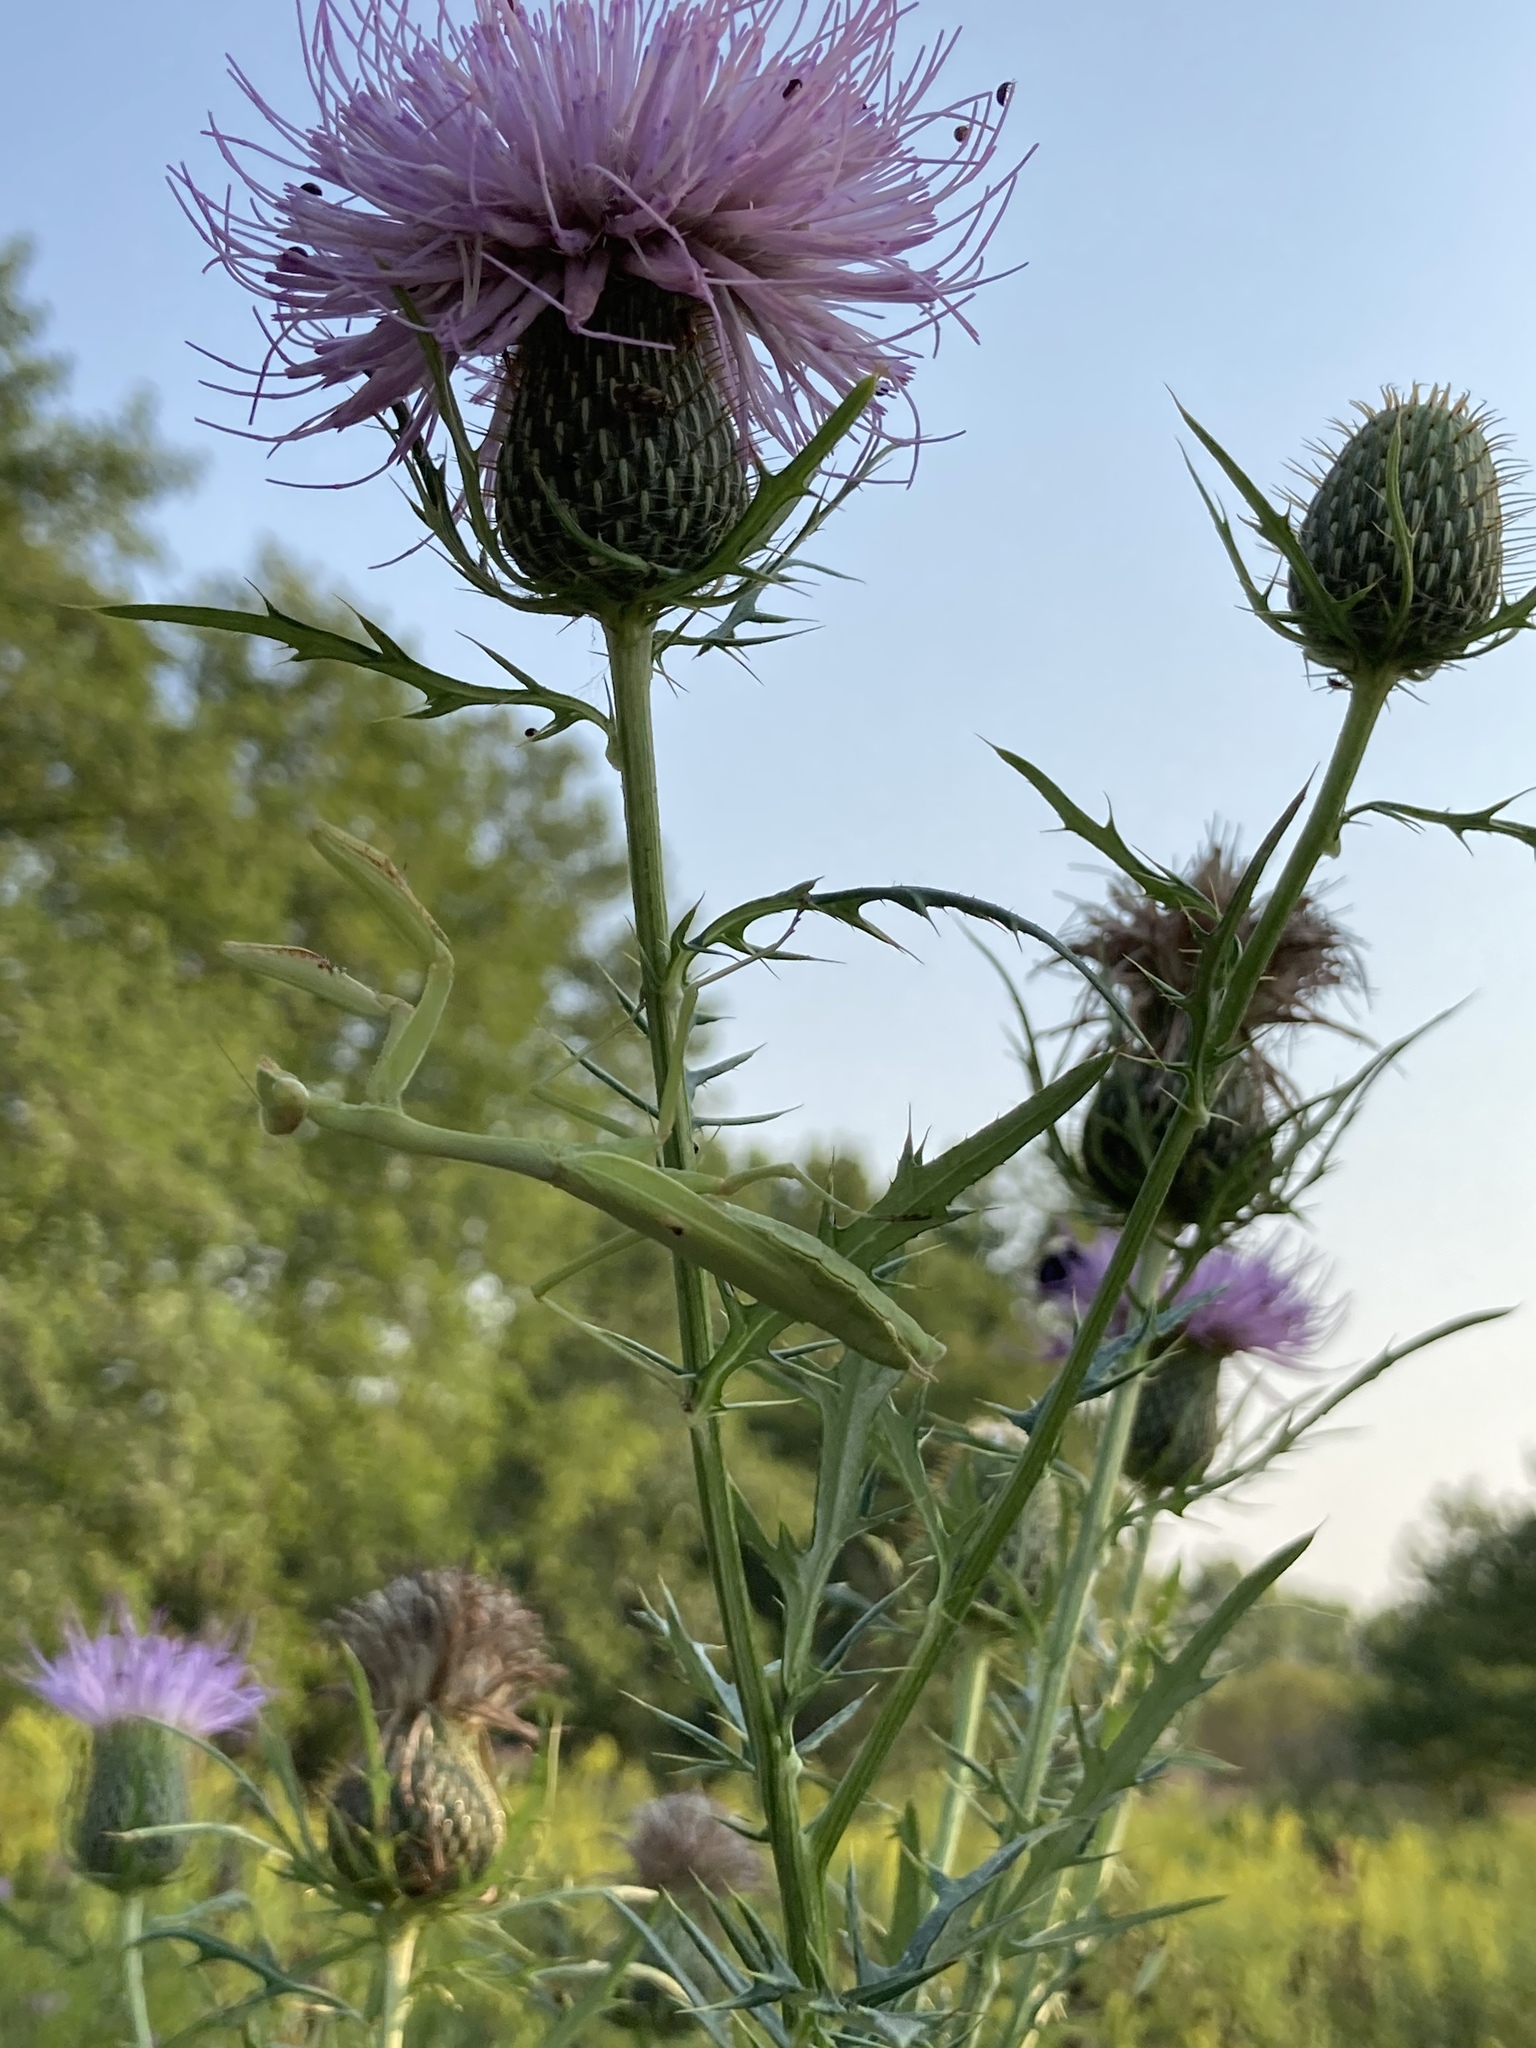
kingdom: Animalia
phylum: Arthropoda
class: Insecta
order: Mantodea
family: Mantidae
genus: Stagmomantis
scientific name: Stagmomantis carolina
